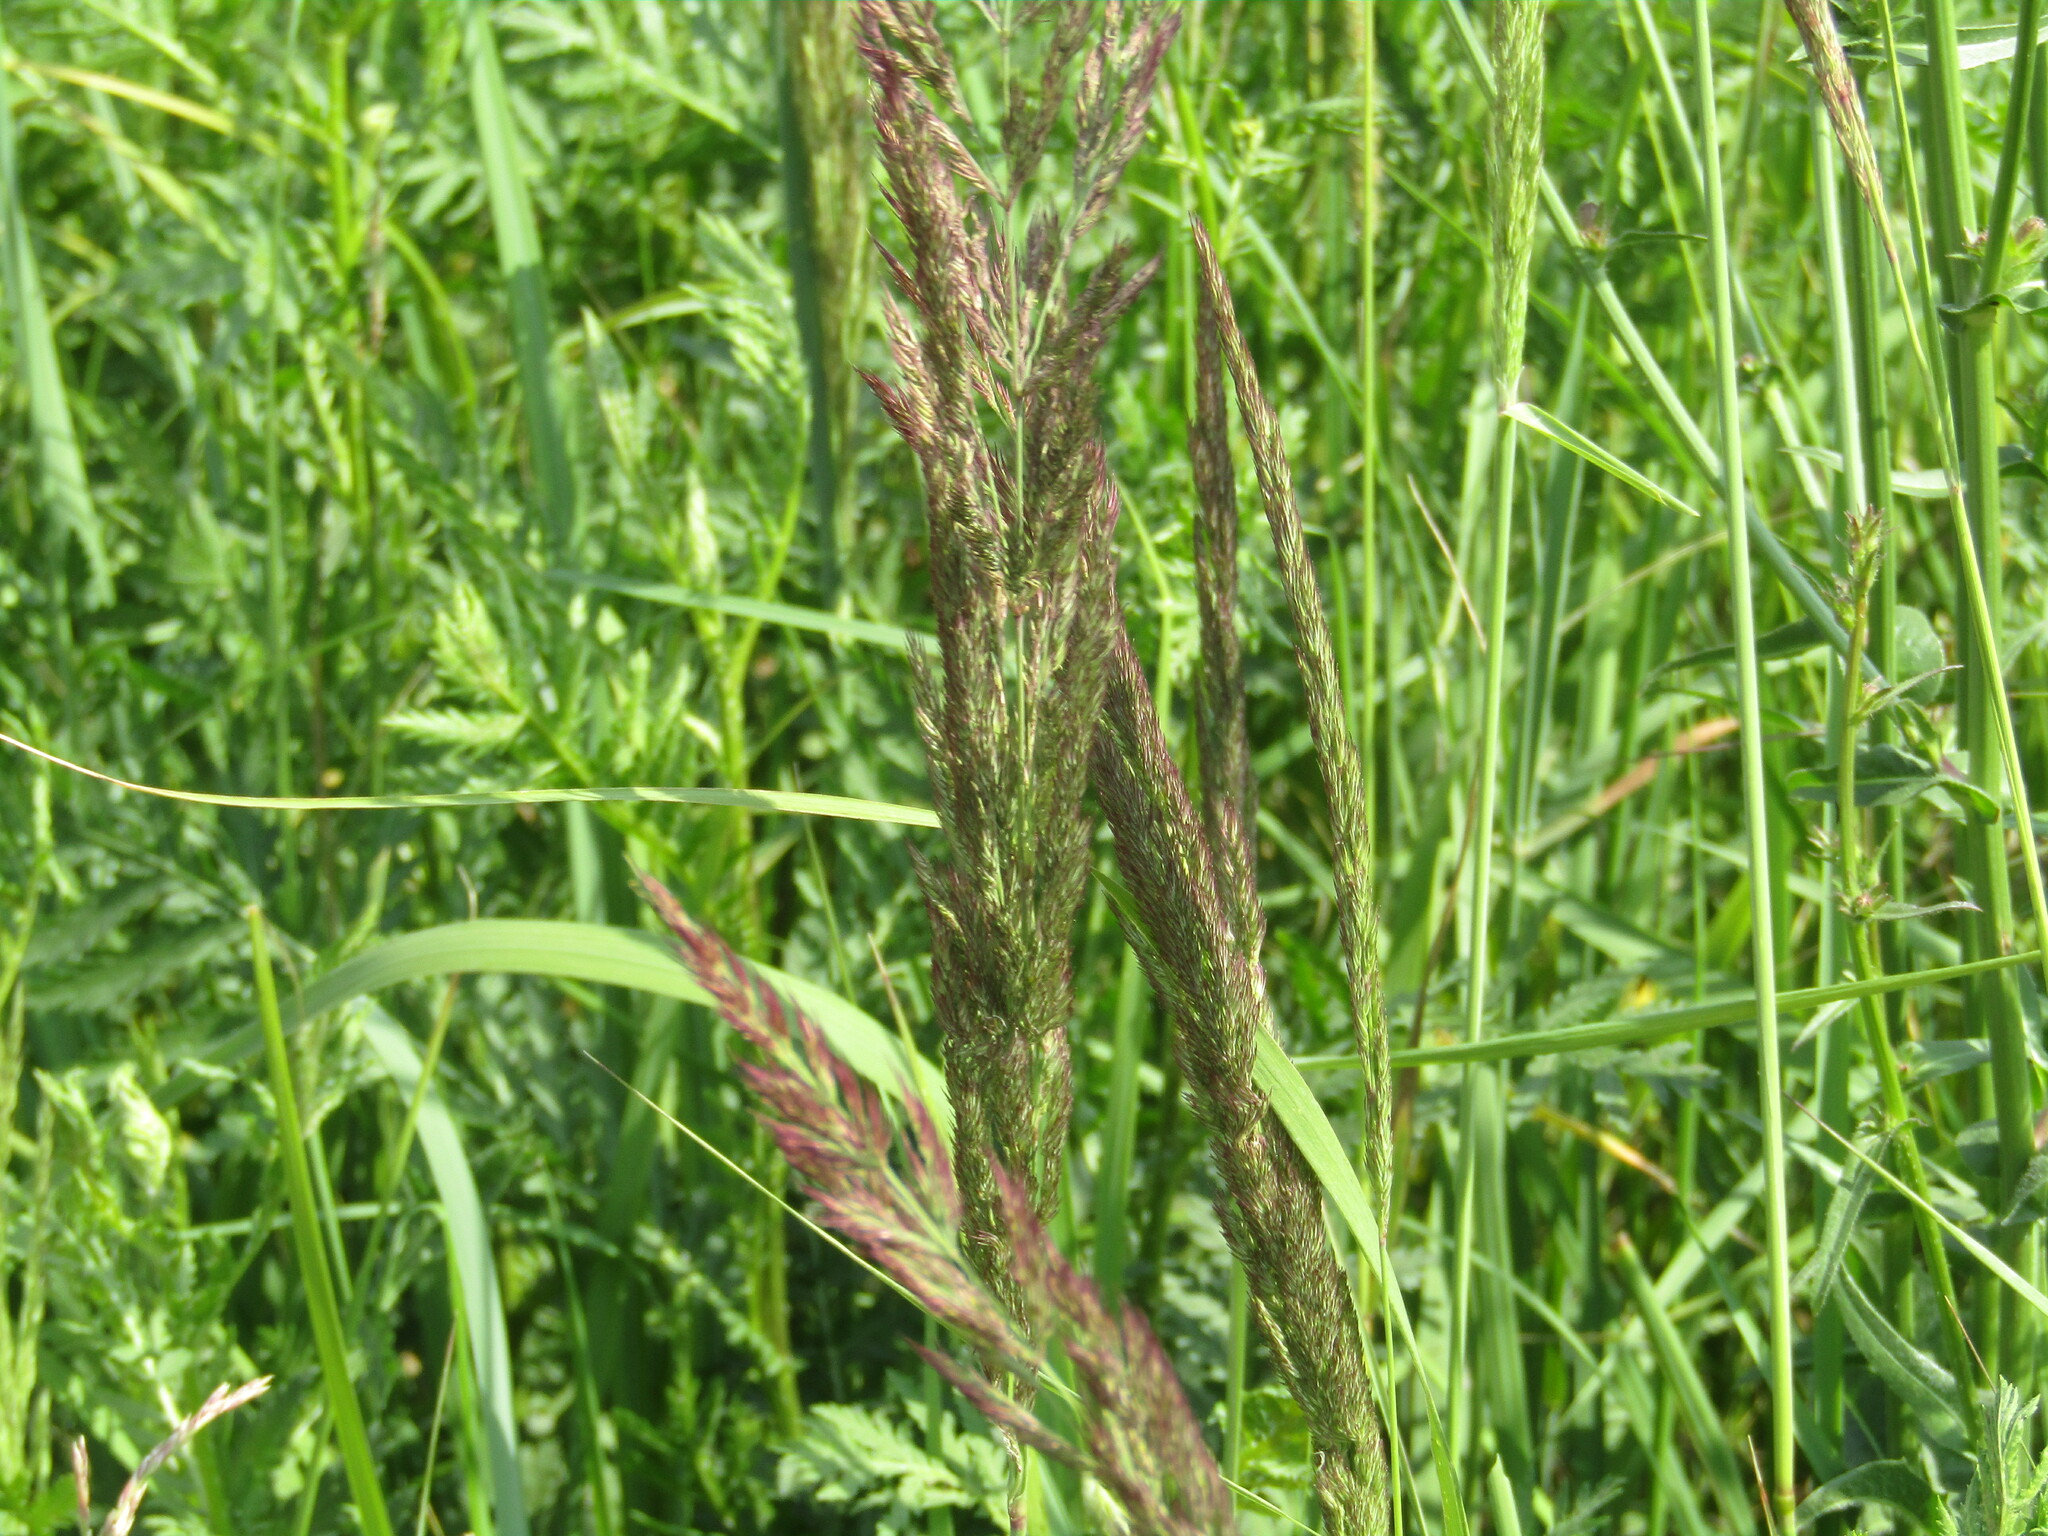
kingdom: Plantae
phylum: Tracheophyta
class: Liliopsida
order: Poales
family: Poaceae
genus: Calamagrostis
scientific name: Calamagrostis epigejos
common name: Wood small-reed
